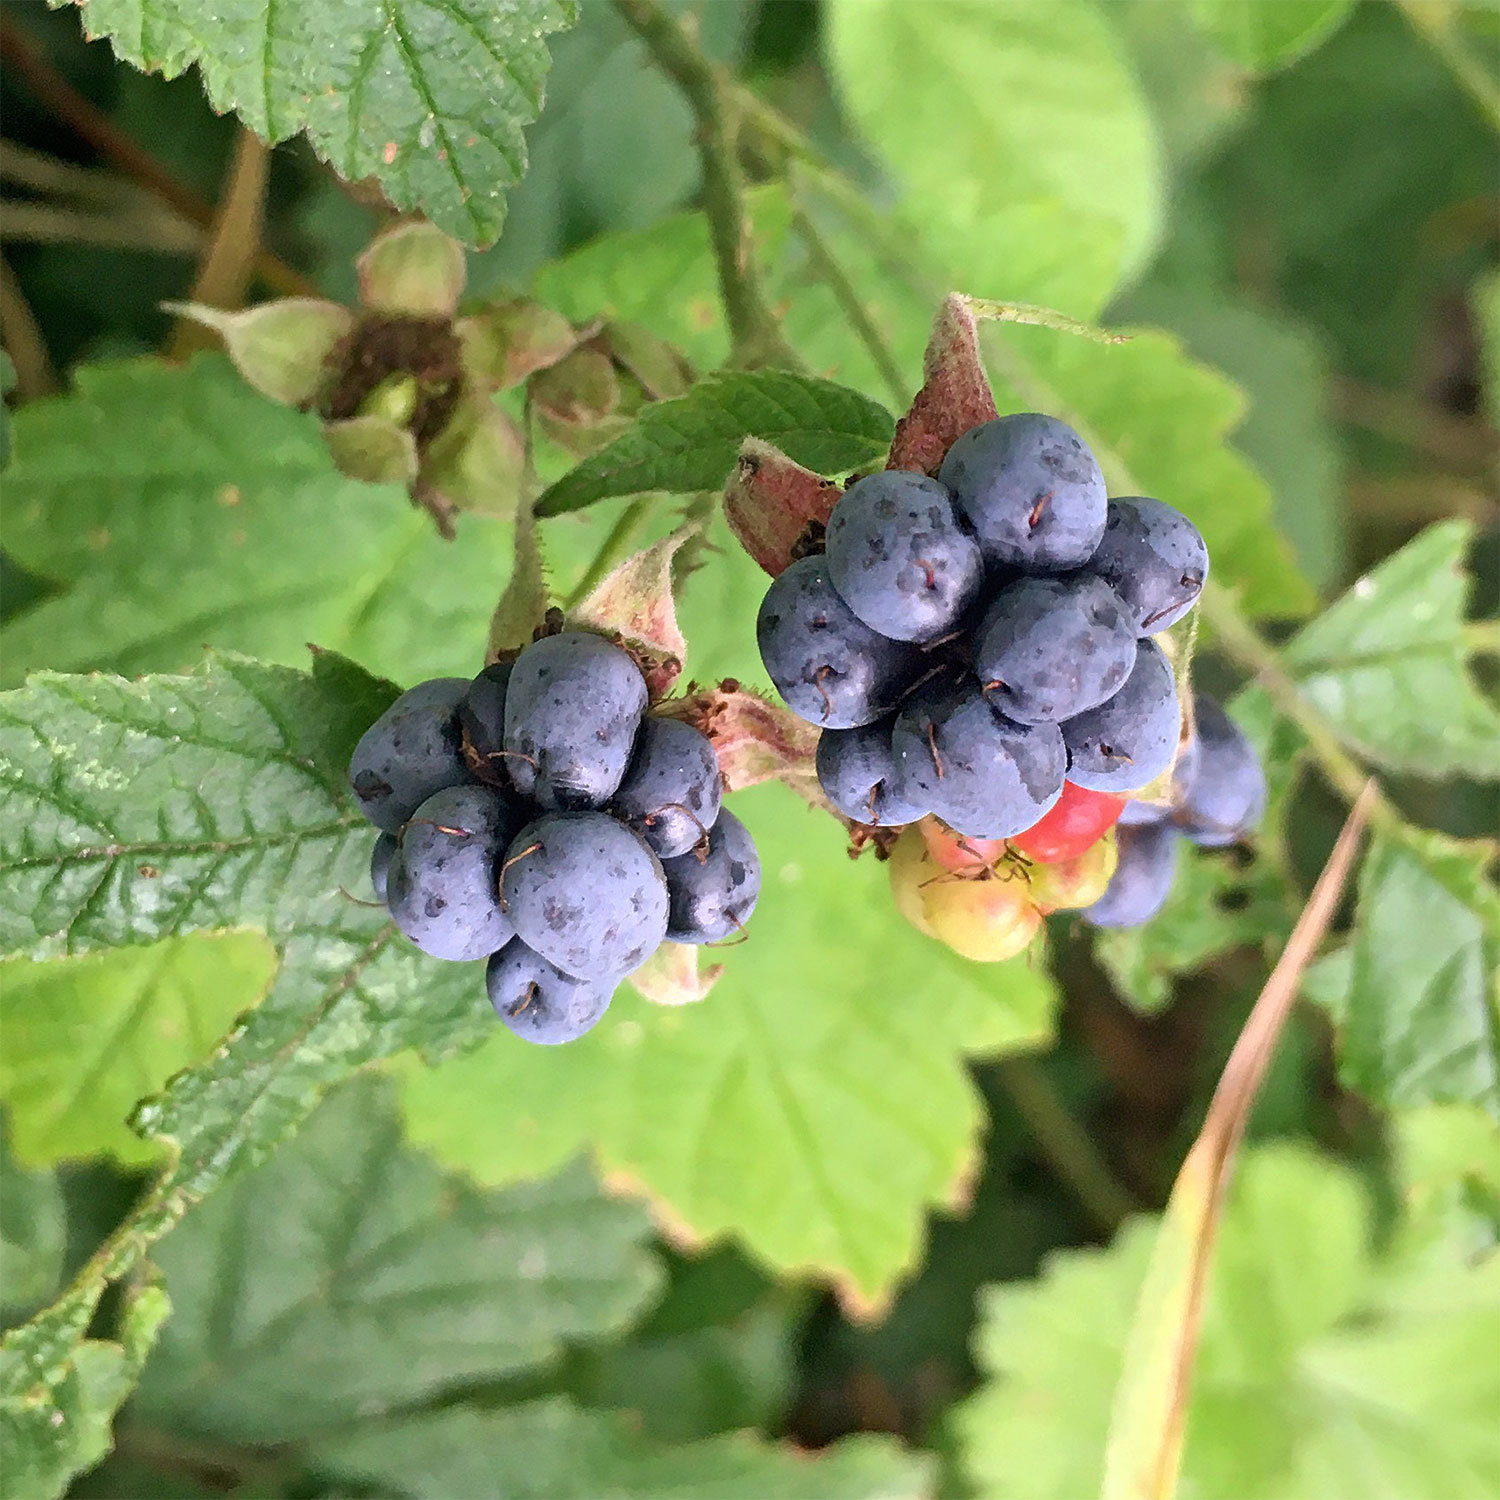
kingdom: Plantae
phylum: Tracheophyta
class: Magnoliopsida
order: Rosales
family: Rosaceae
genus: Rubus
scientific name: Rubus caesius
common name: Dewberry
